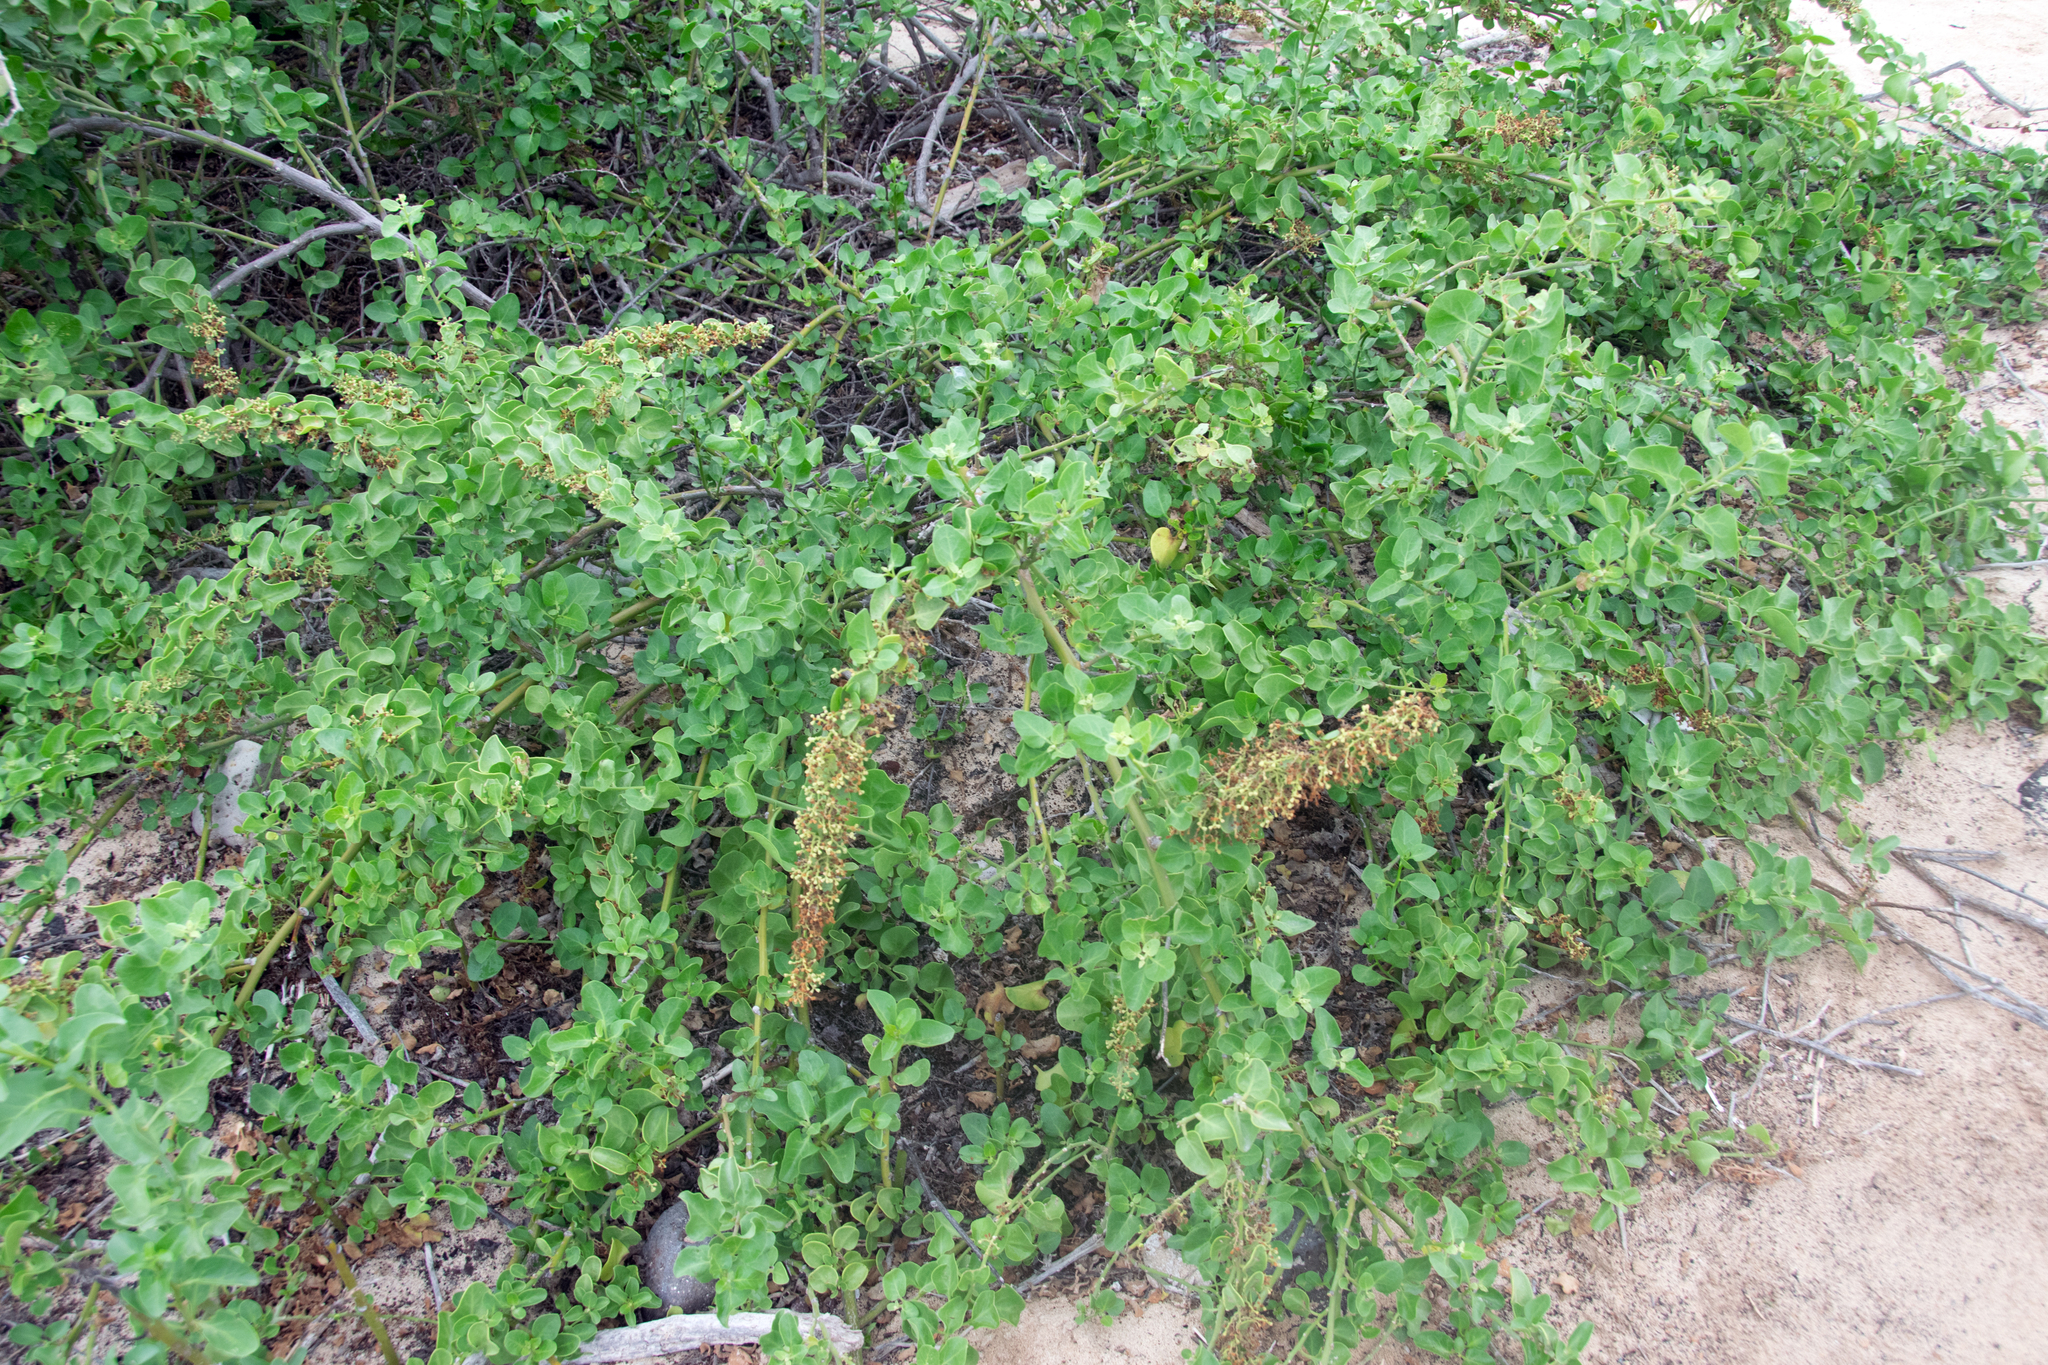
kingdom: Plantae
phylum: Tracheophyta
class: Magnoliopsida
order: Caryophyllales
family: Nyctaginaceae
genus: Cryptocarpus
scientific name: Cryptocarpus pyriformis
